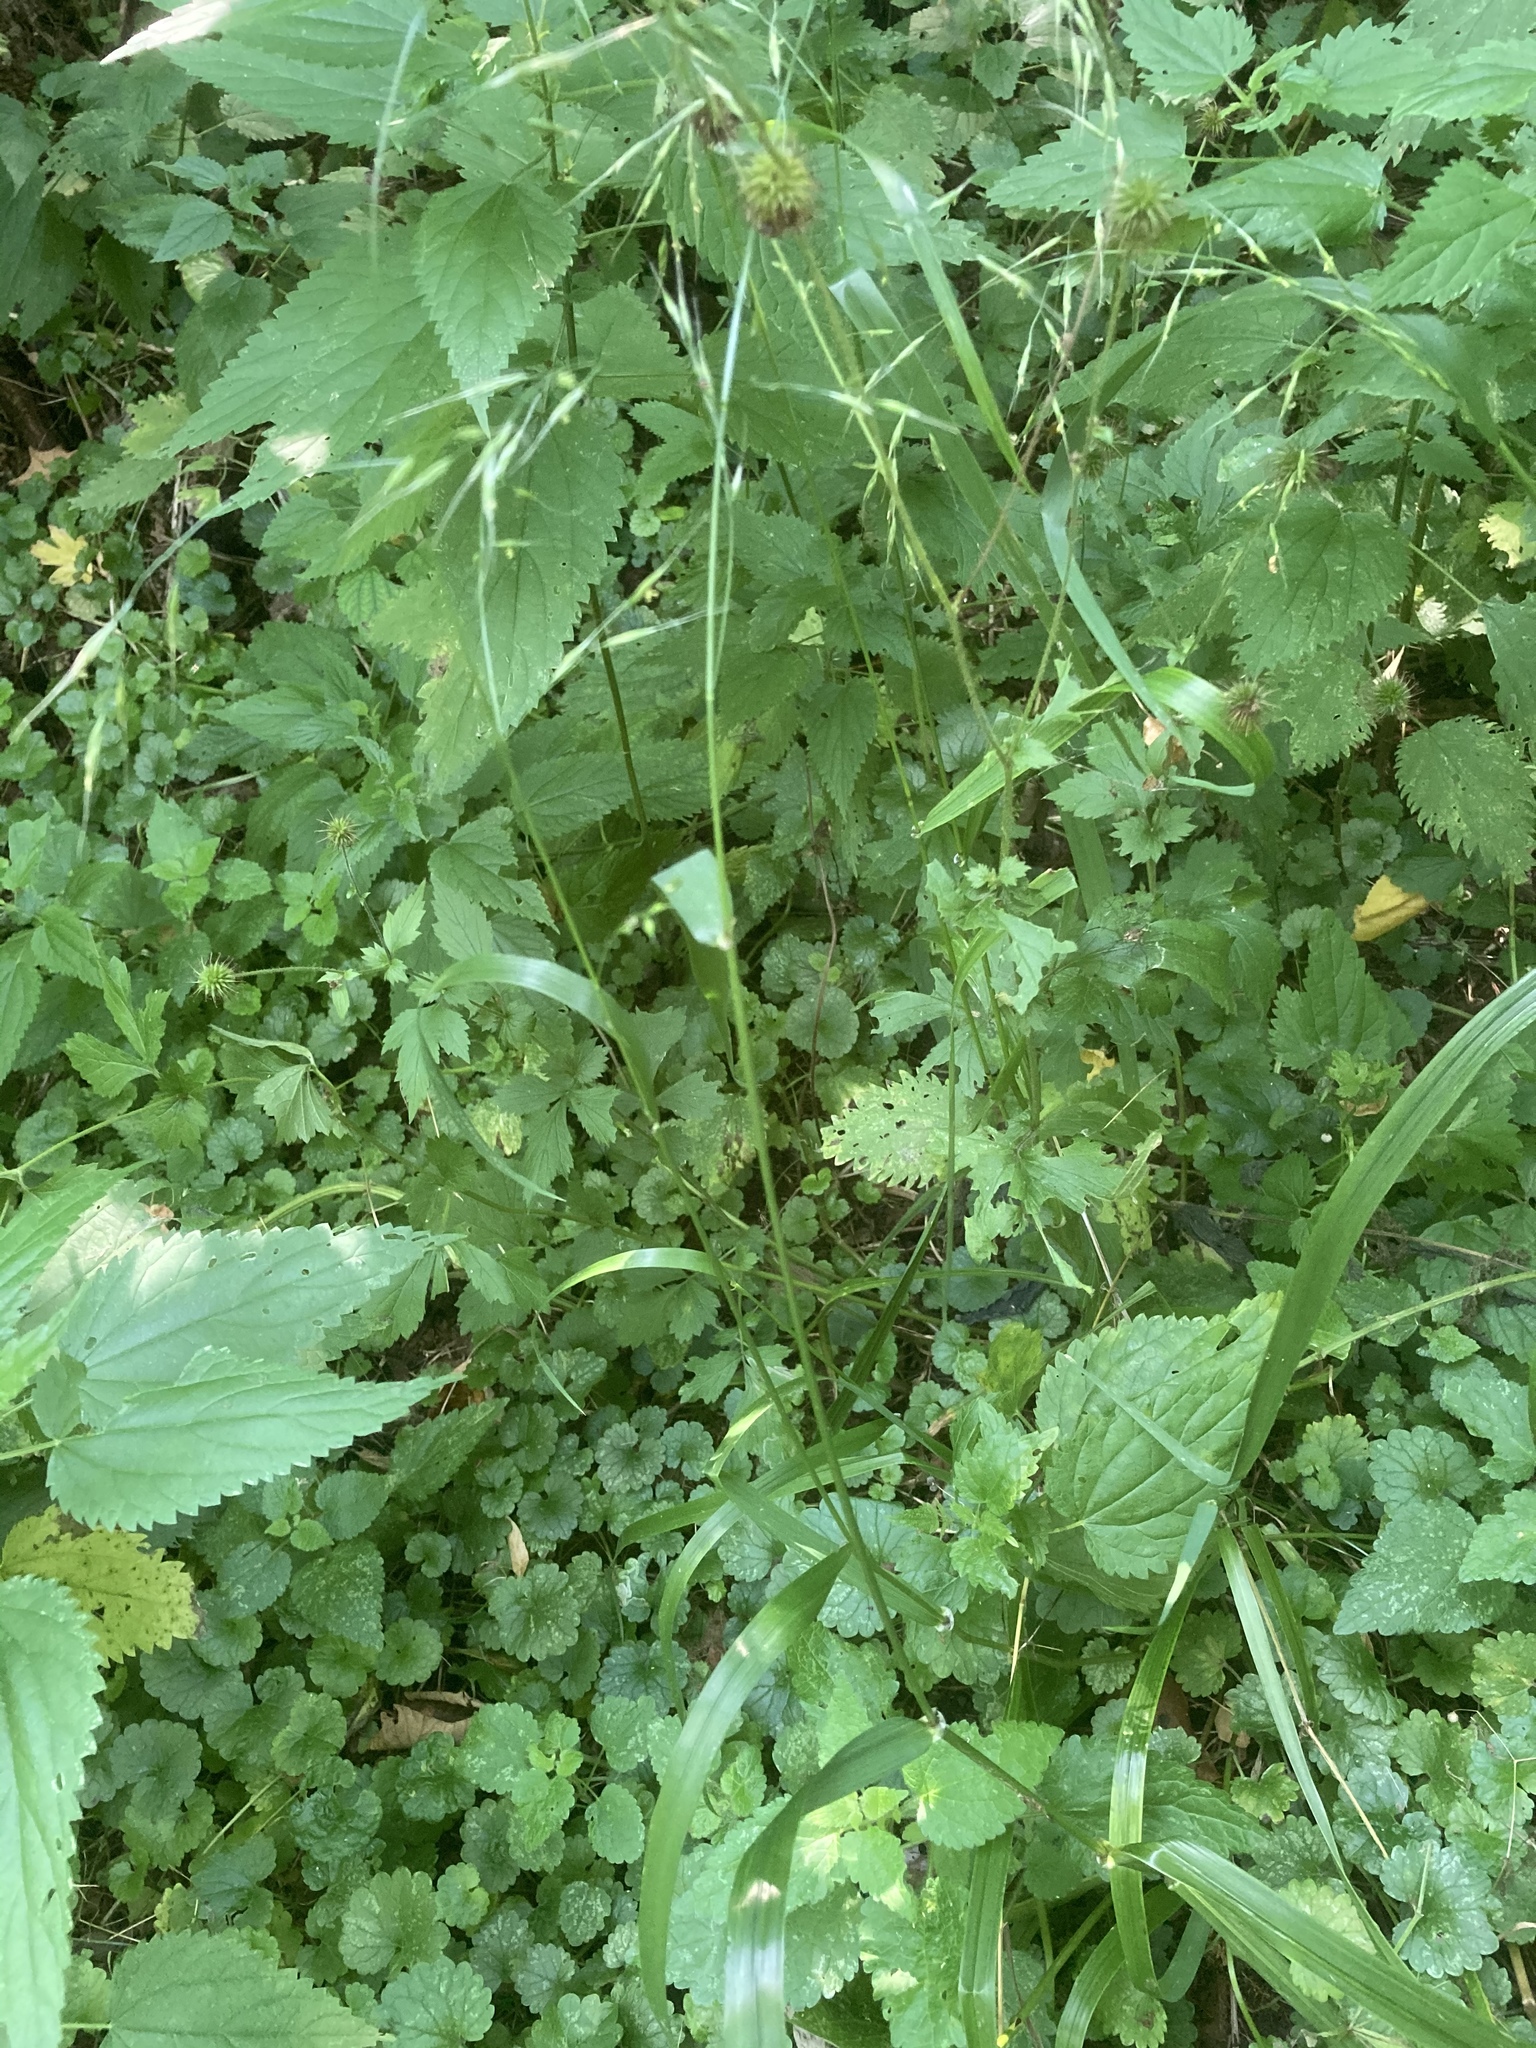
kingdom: Plantae
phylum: Tracheophyta
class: Liliopsida
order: Poales
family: Poaceae
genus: Lolium
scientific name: Lolium giganteum
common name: Giant fescue
